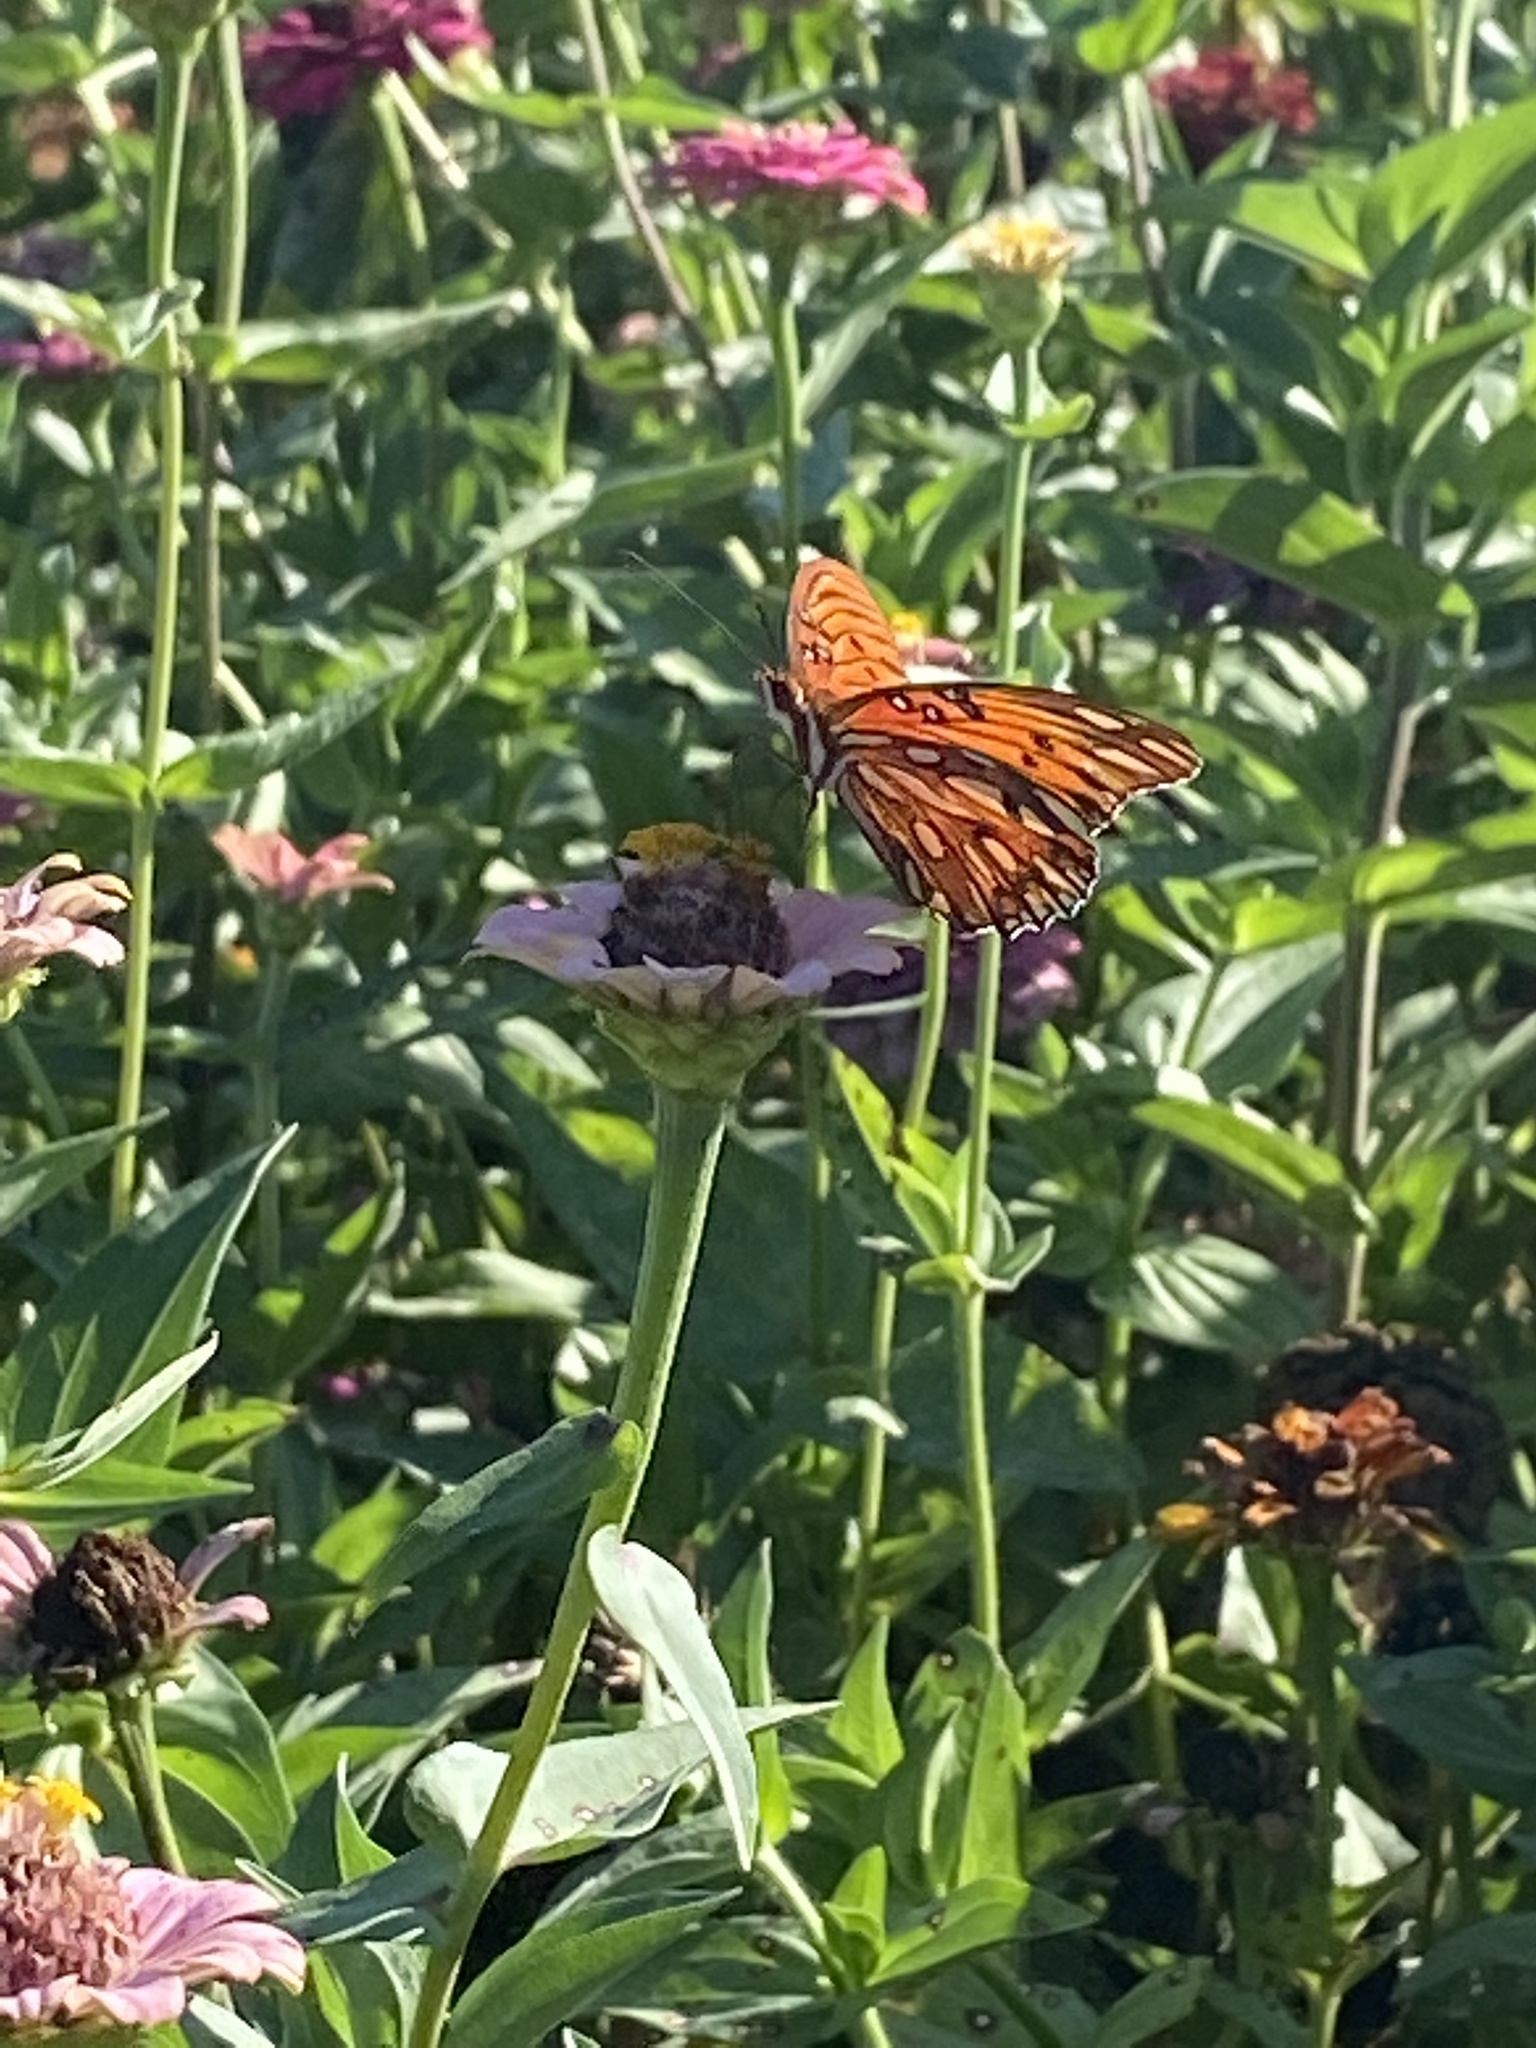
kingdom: Animalia
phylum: Arthropoda
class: Insecta
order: Lepidoptera
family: Nymphalidae
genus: Dione
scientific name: Dione vanillae
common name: Gulf fritillary
